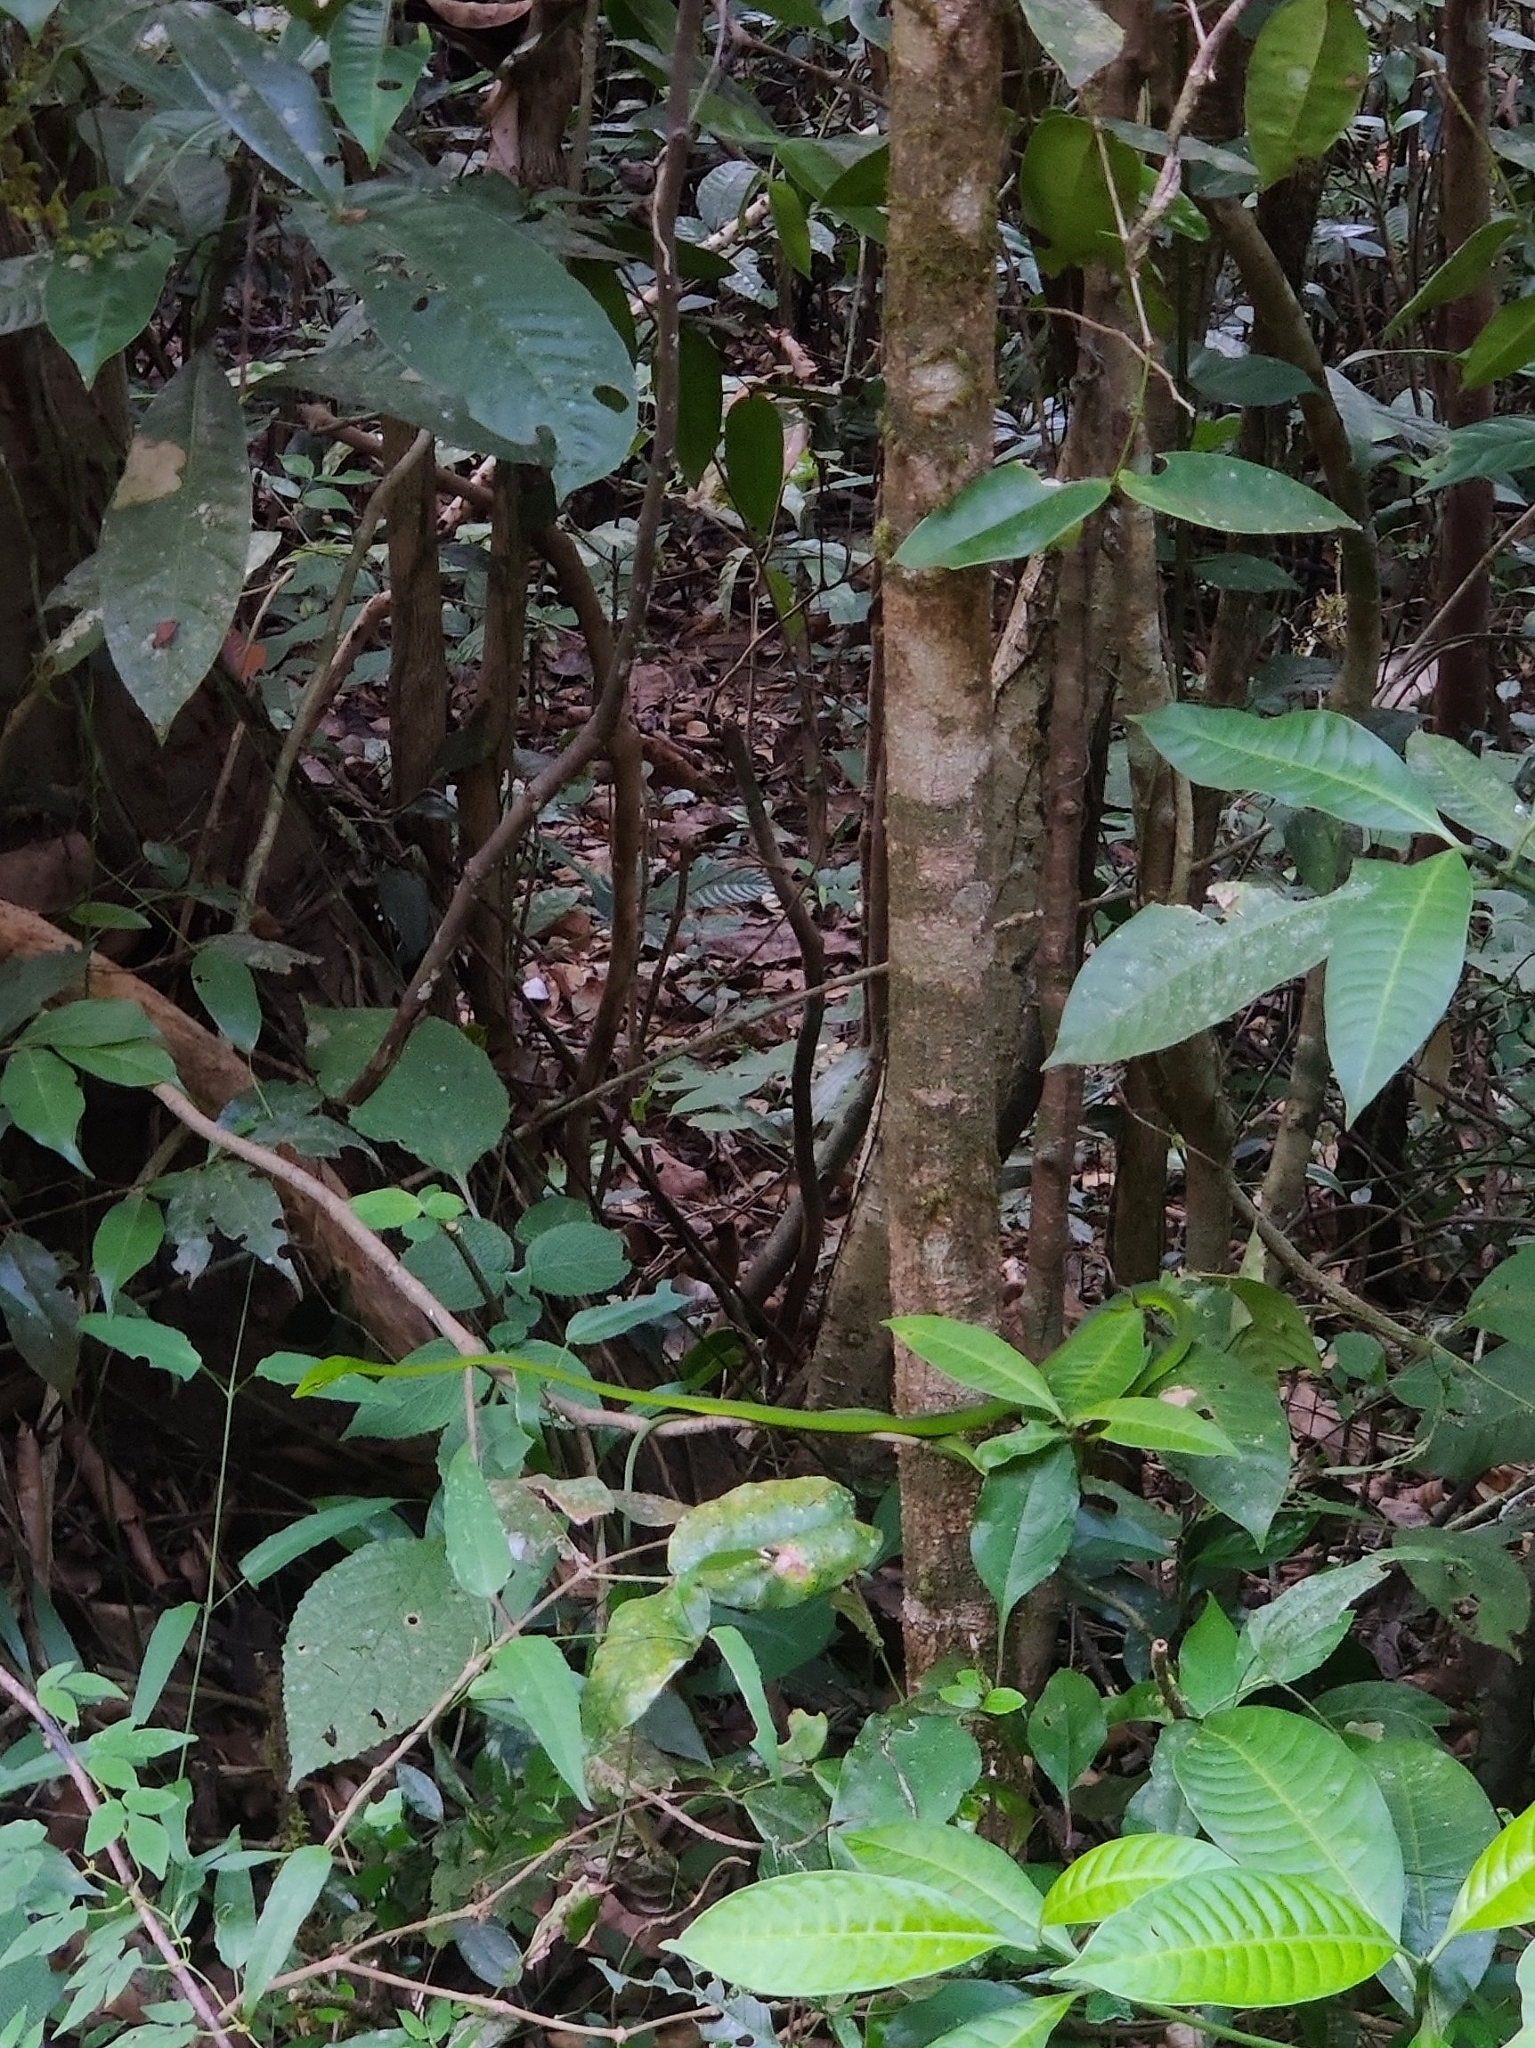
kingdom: Animalia
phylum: Chordata
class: Squamata
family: Colubridae
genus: Ahaetulla
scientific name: Ahaetulla farnsworthi
